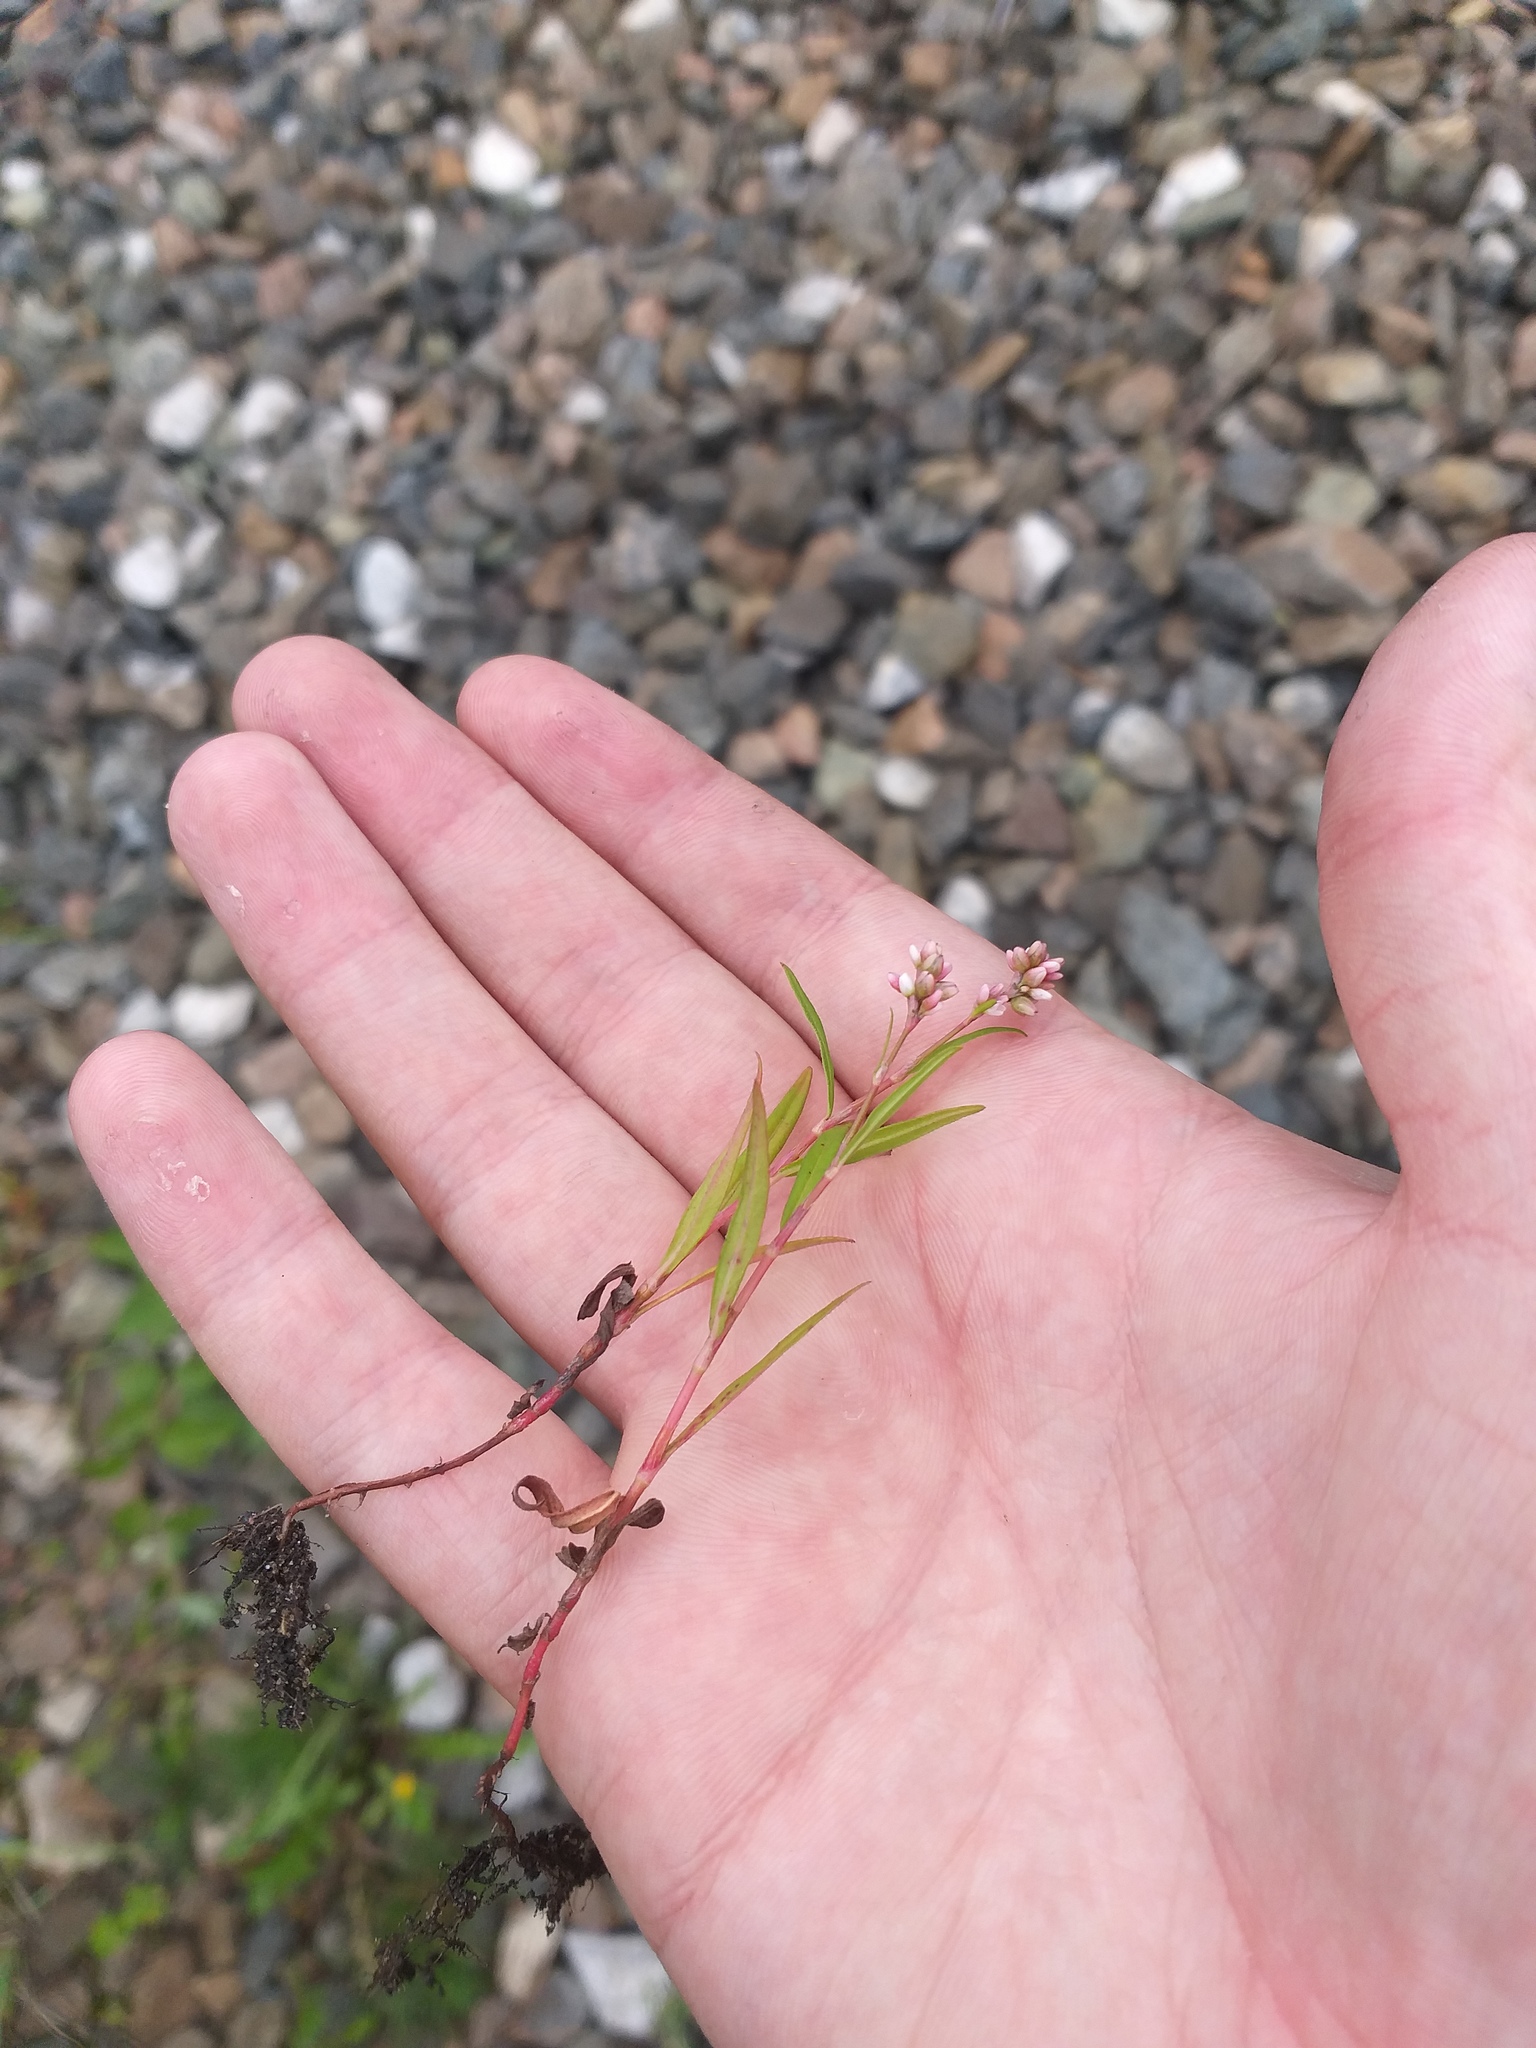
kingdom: Plantae
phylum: Tracheophyta
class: Magnoliopsida
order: Caryophyllales
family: Polygonaceae
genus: Persicaria
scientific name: Persicaria maculosa
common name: Redshank
